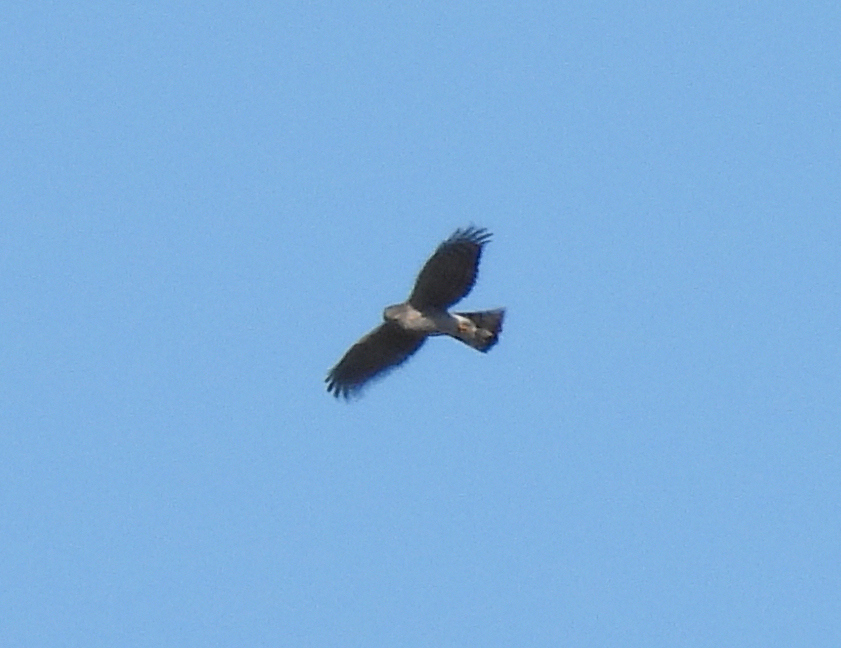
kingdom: Animalia
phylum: Chordata
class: Aves
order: Accipitriformes
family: Accipitridae
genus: Accipiter
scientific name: Accipiter cooperii
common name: Cooper's hawk
